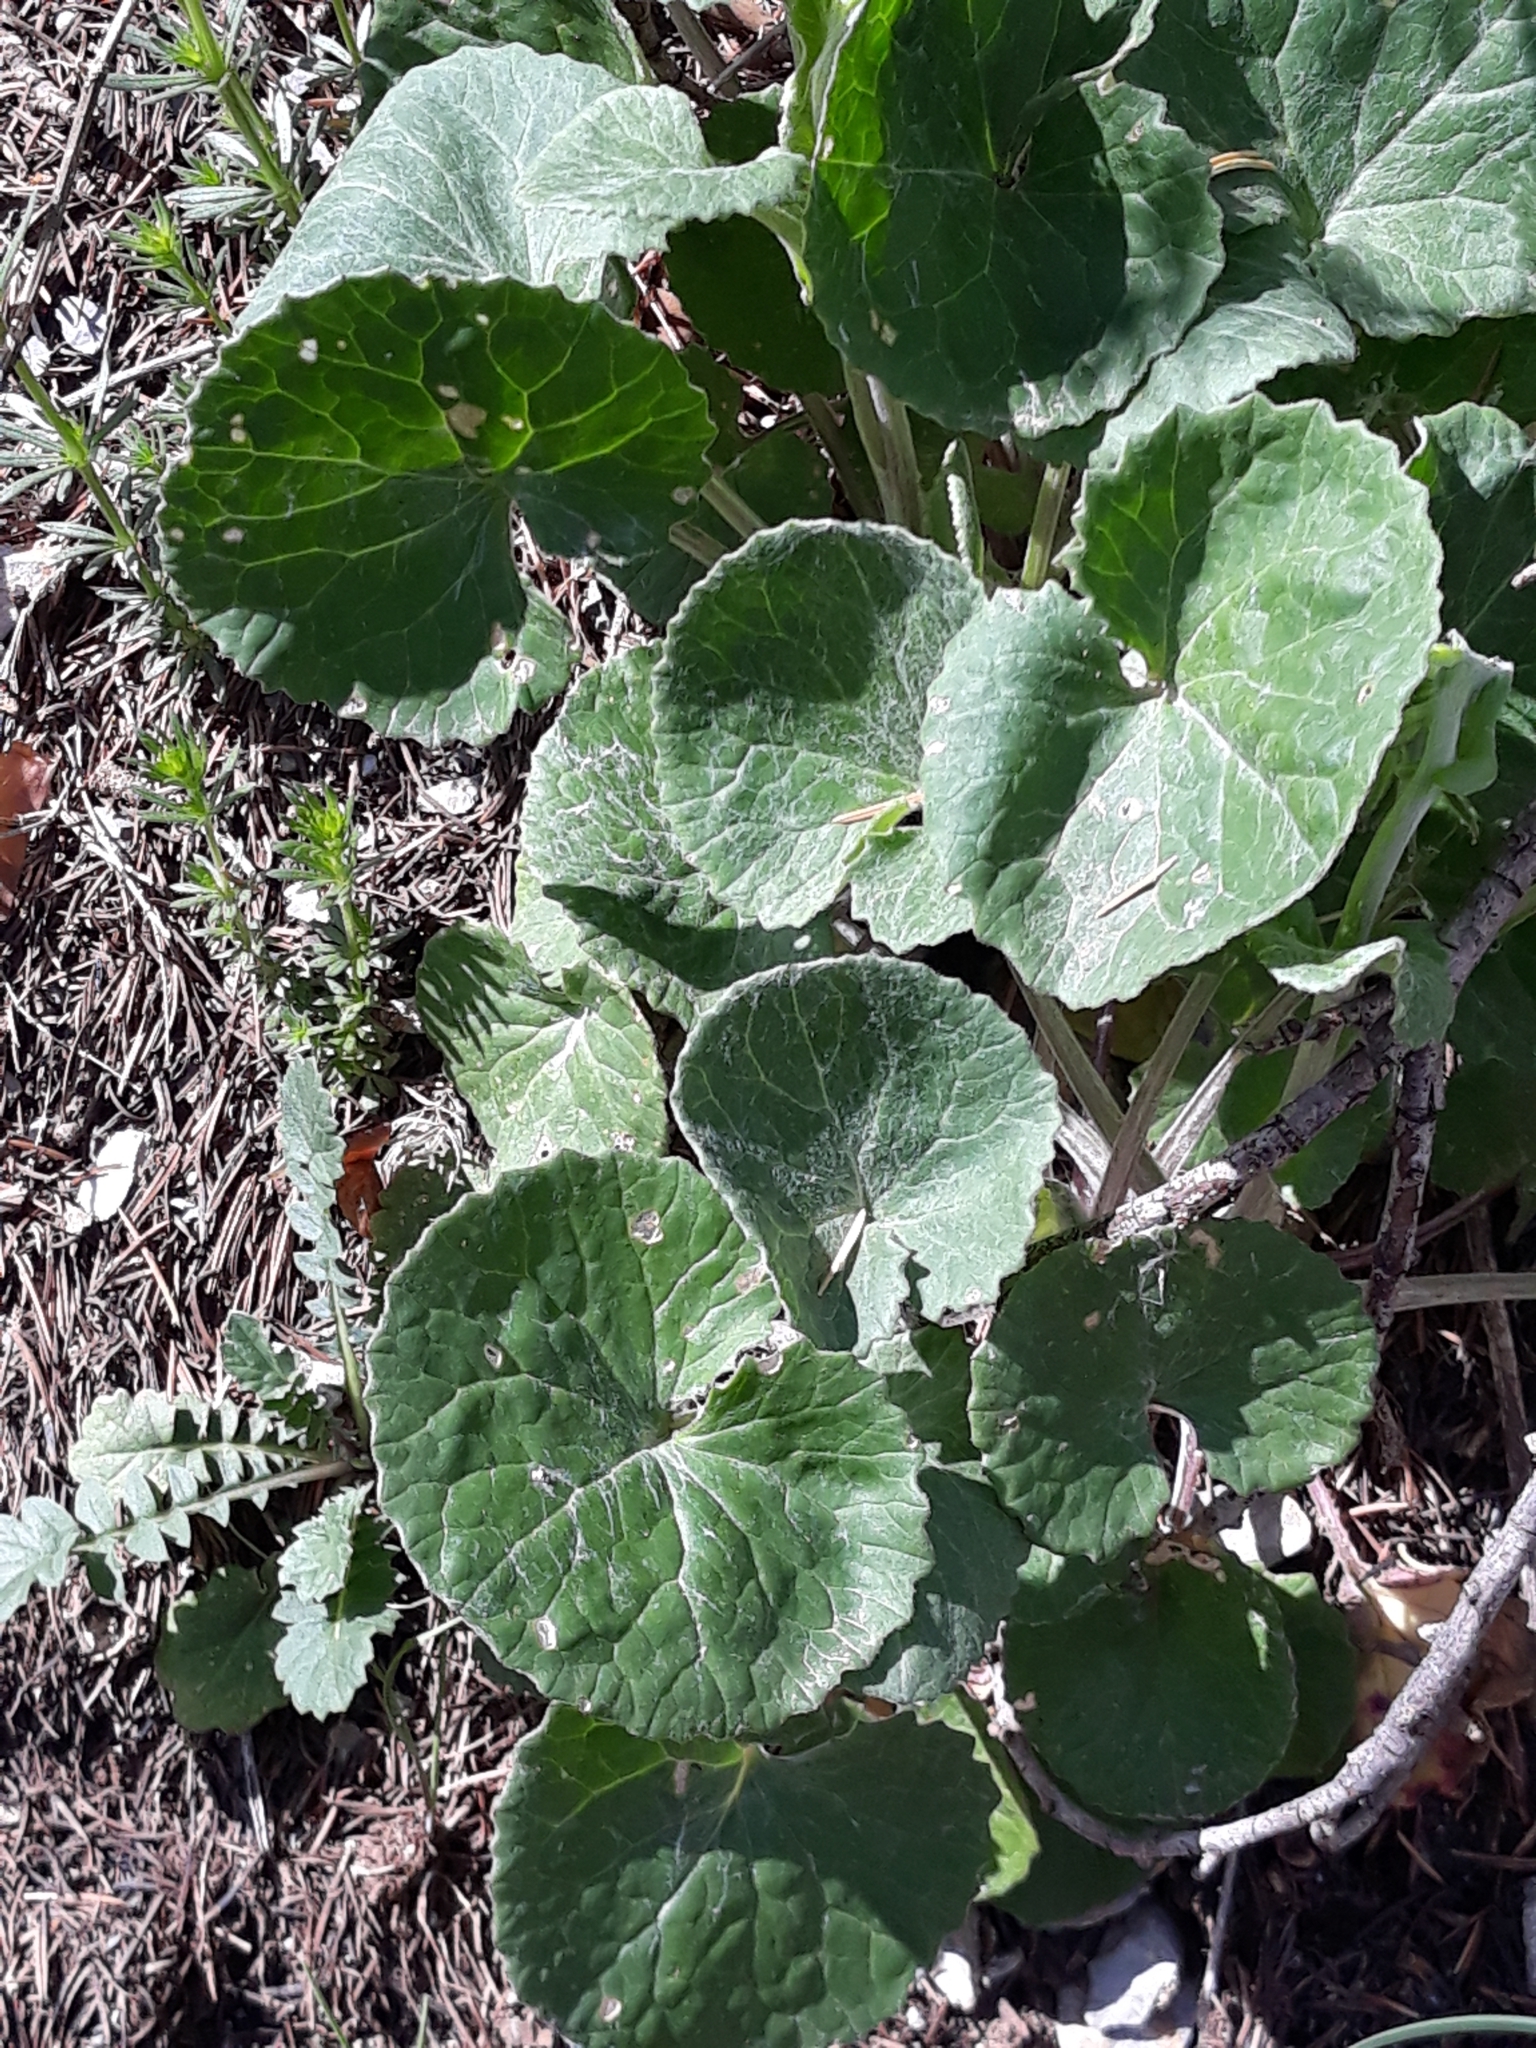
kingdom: Plantae
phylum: Tracheophyta
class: Magnoliopsida
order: Asterales
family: Asteraceae
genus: Senecio
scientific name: Senecio perralderianus
